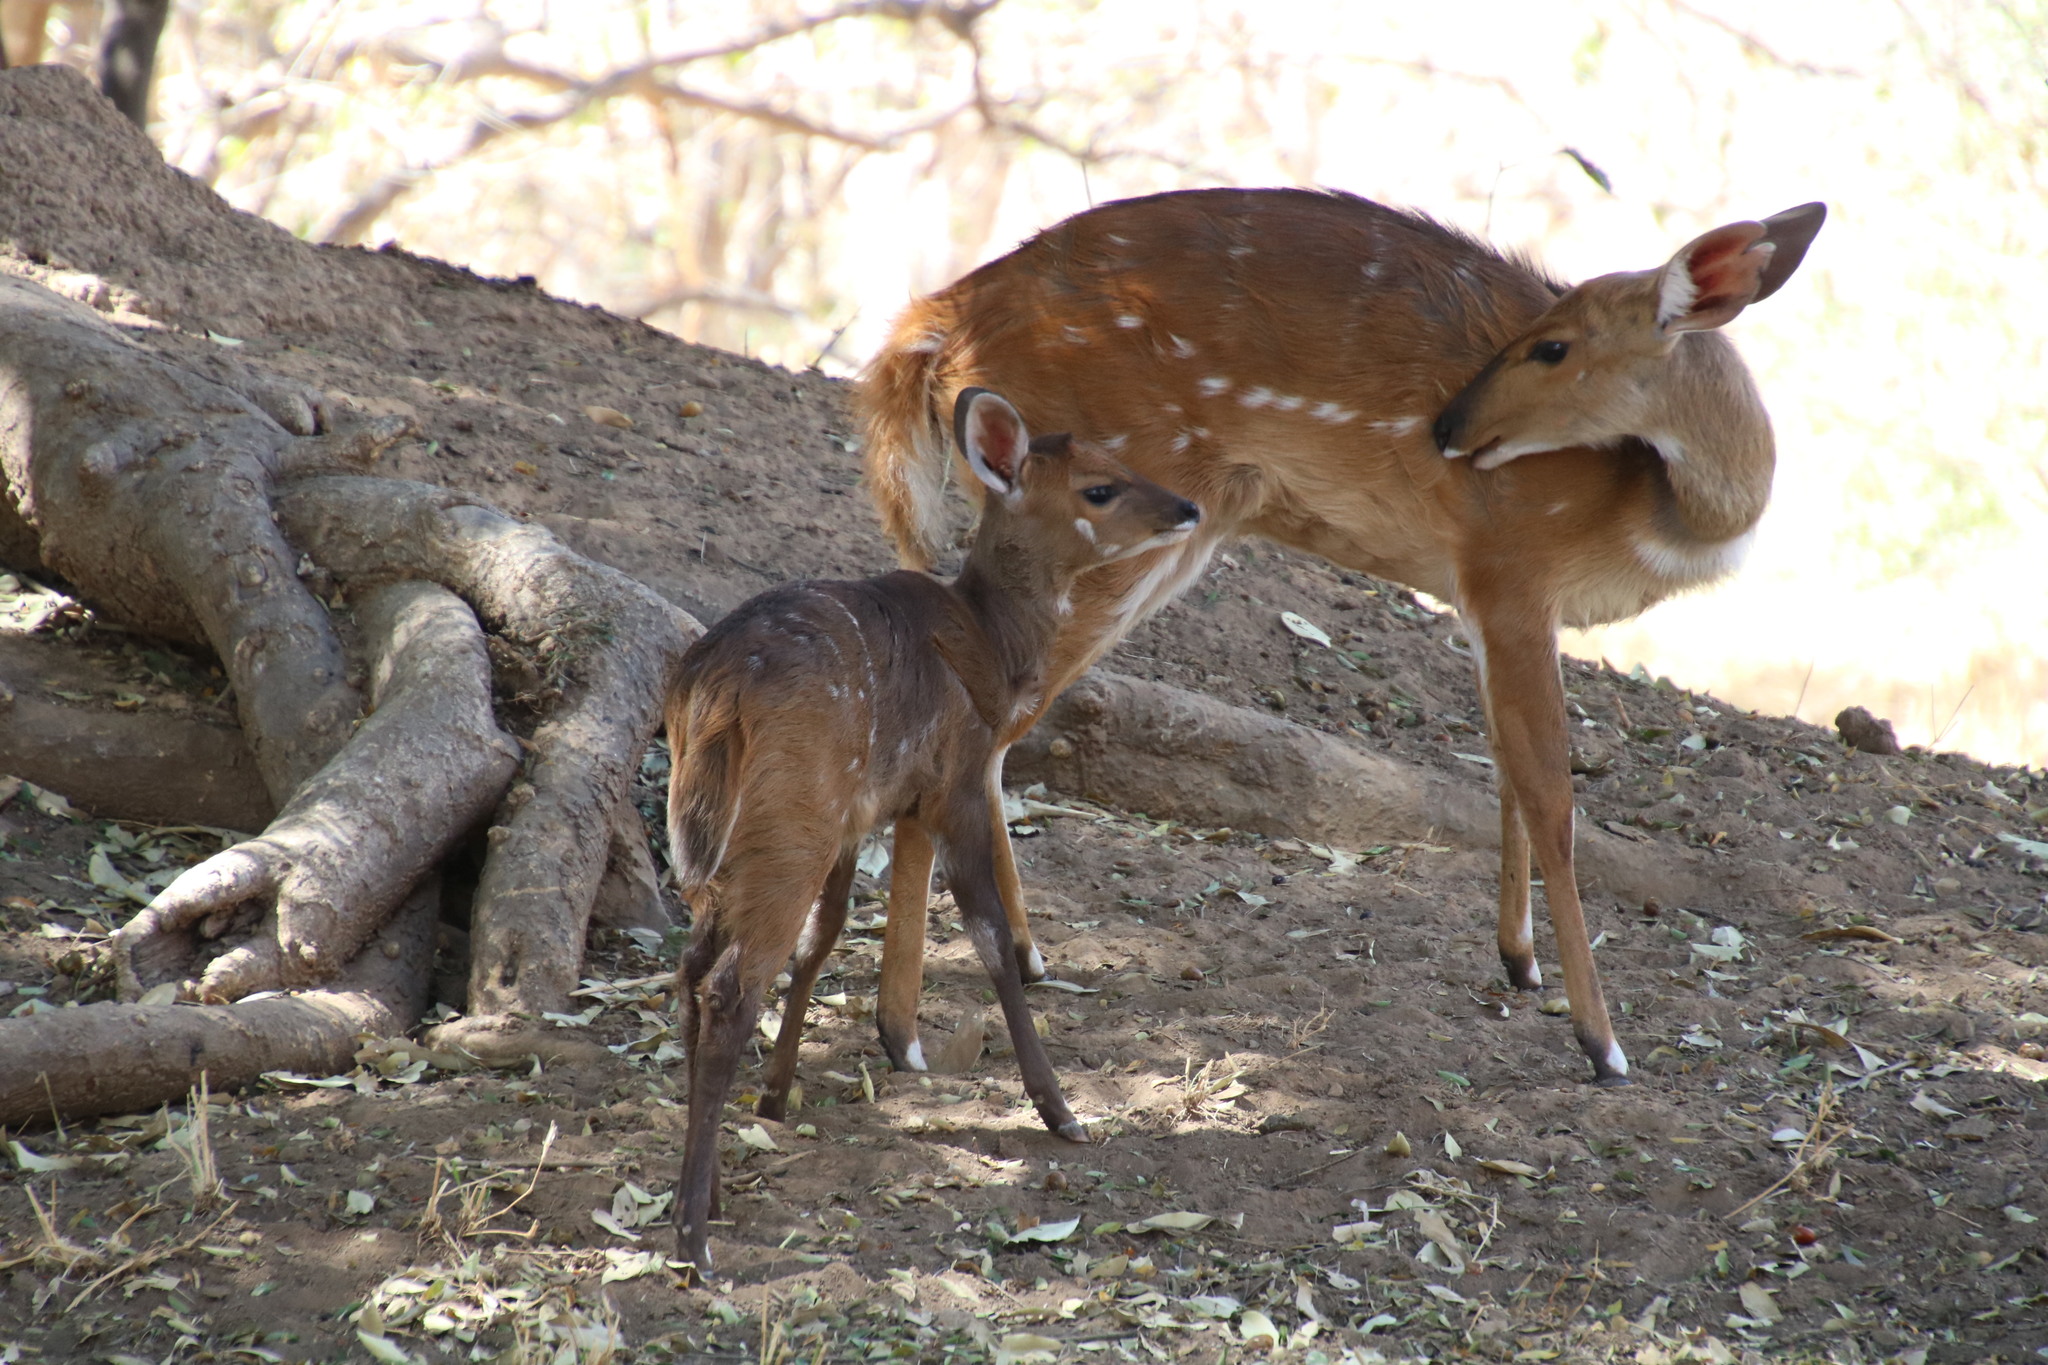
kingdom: Animalia
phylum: Chordata
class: Mammalia
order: Artiodactyla
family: Bovidae
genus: Tragelaphus
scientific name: Tragelaphus scriptus
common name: Bushbuck
